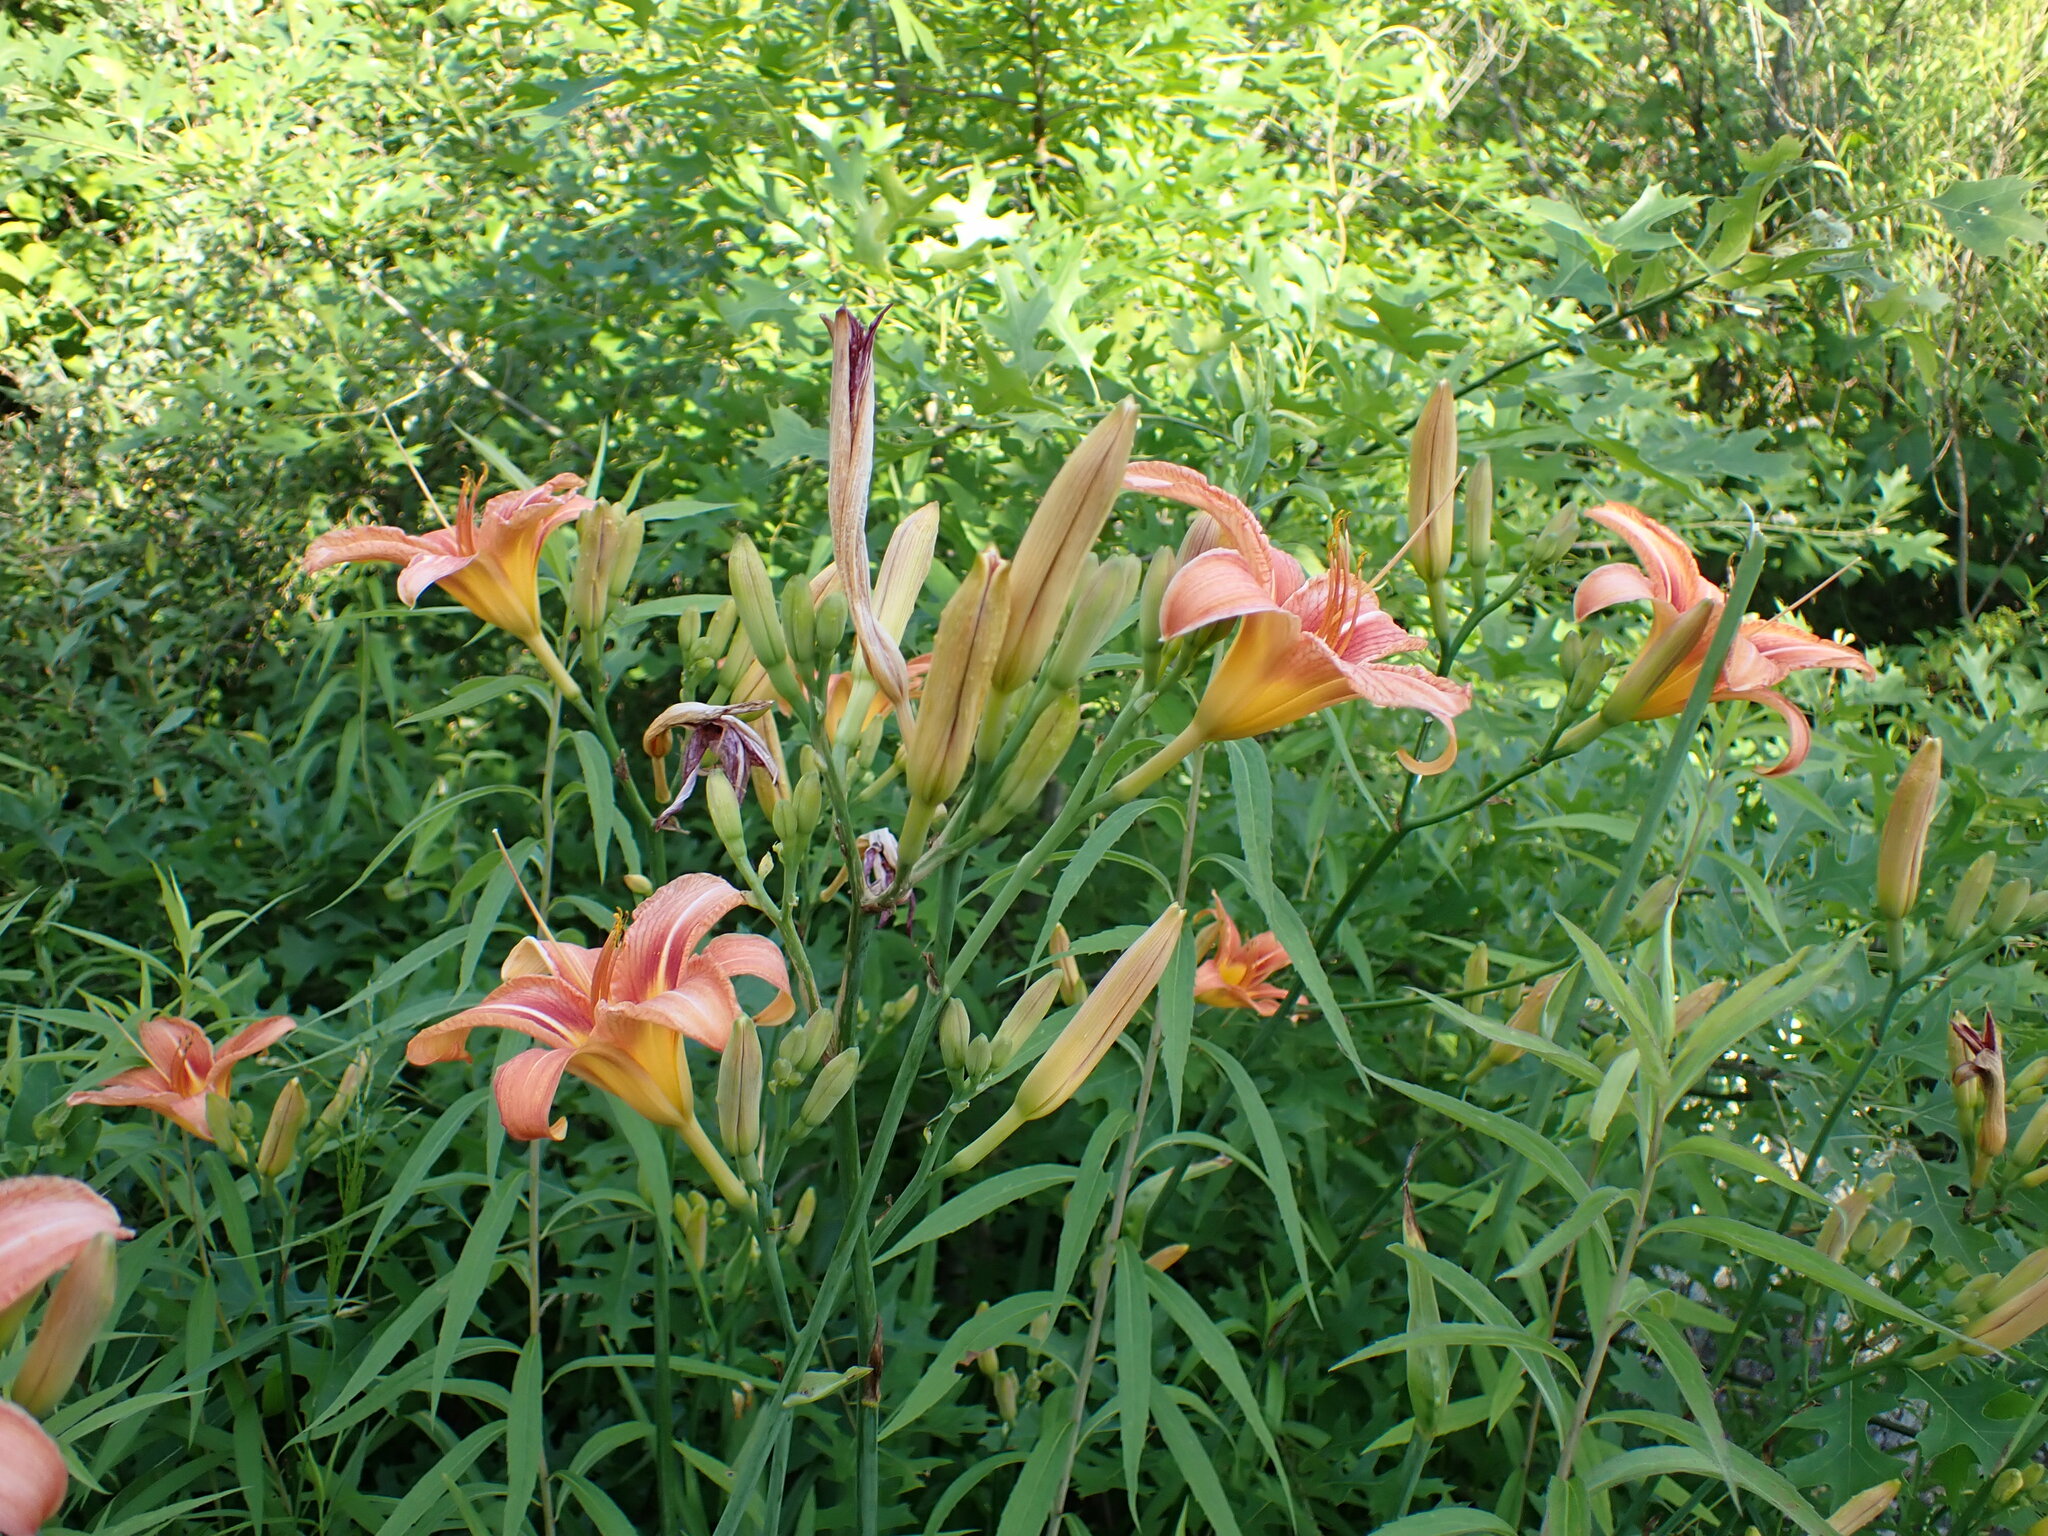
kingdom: Plantae
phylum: Tracheophyta
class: Liliopsida
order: Asparagales
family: Asphodelaceae
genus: Hemerocallis
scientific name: Hemerocallis fulva
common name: Orange day-lily
